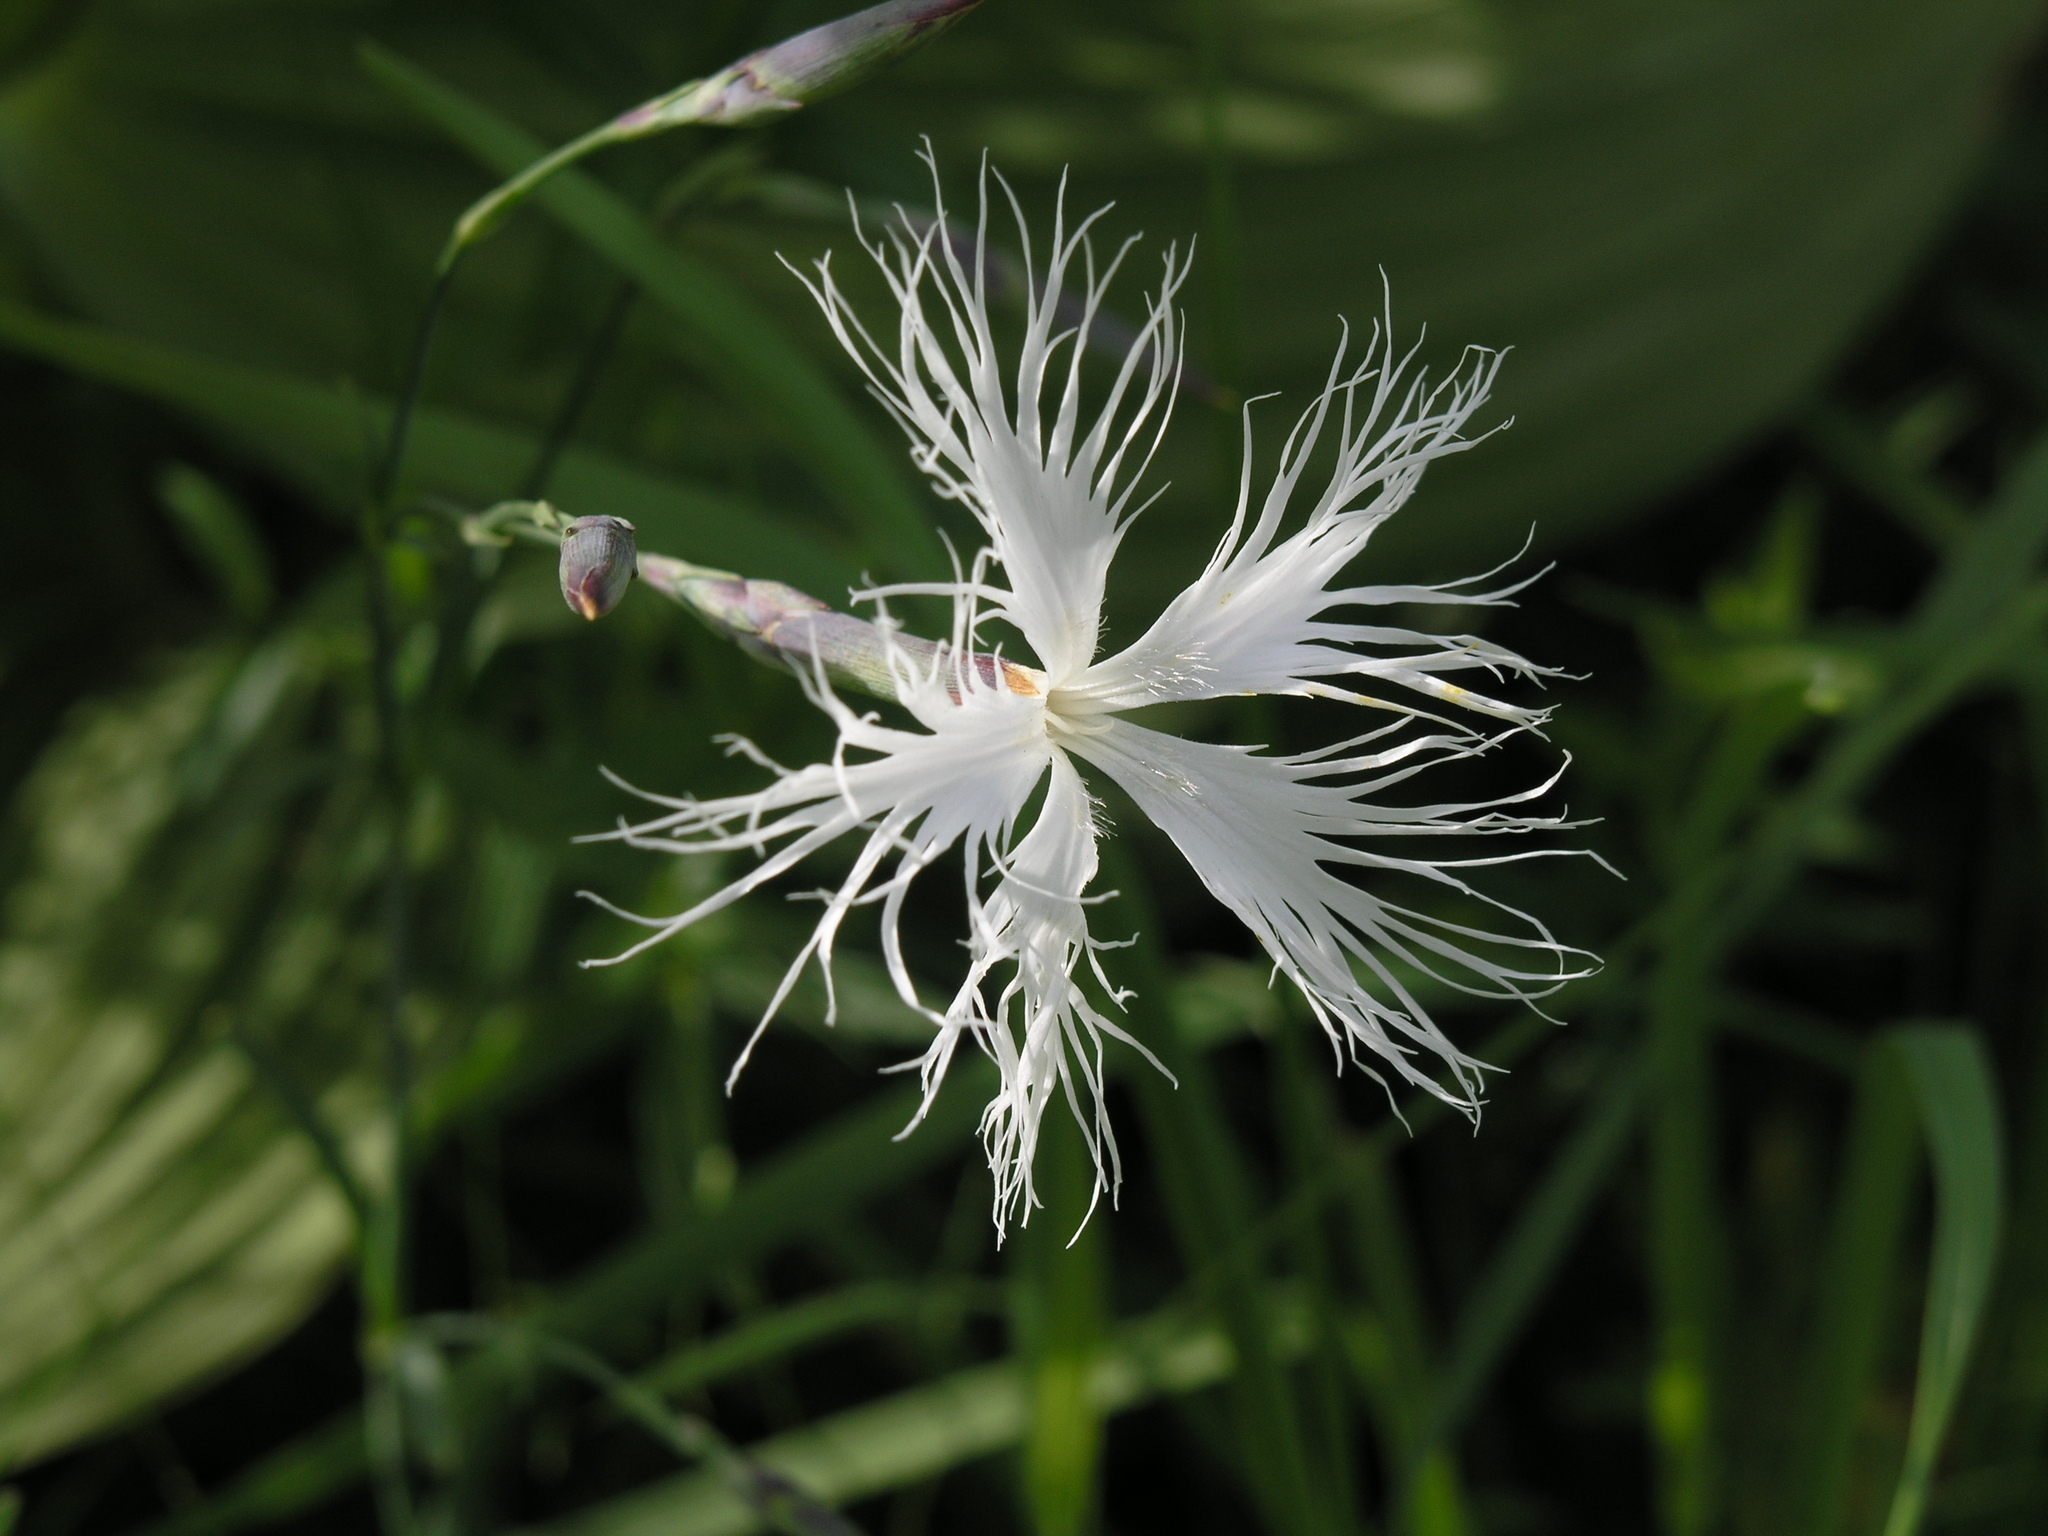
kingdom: Plantae
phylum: Tracheophyta
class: Magnoliopsida
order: Caryophyllales
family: Caryophyllaceae
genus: Dianthus
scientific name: Dianthus superbus
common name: Fringed pink
